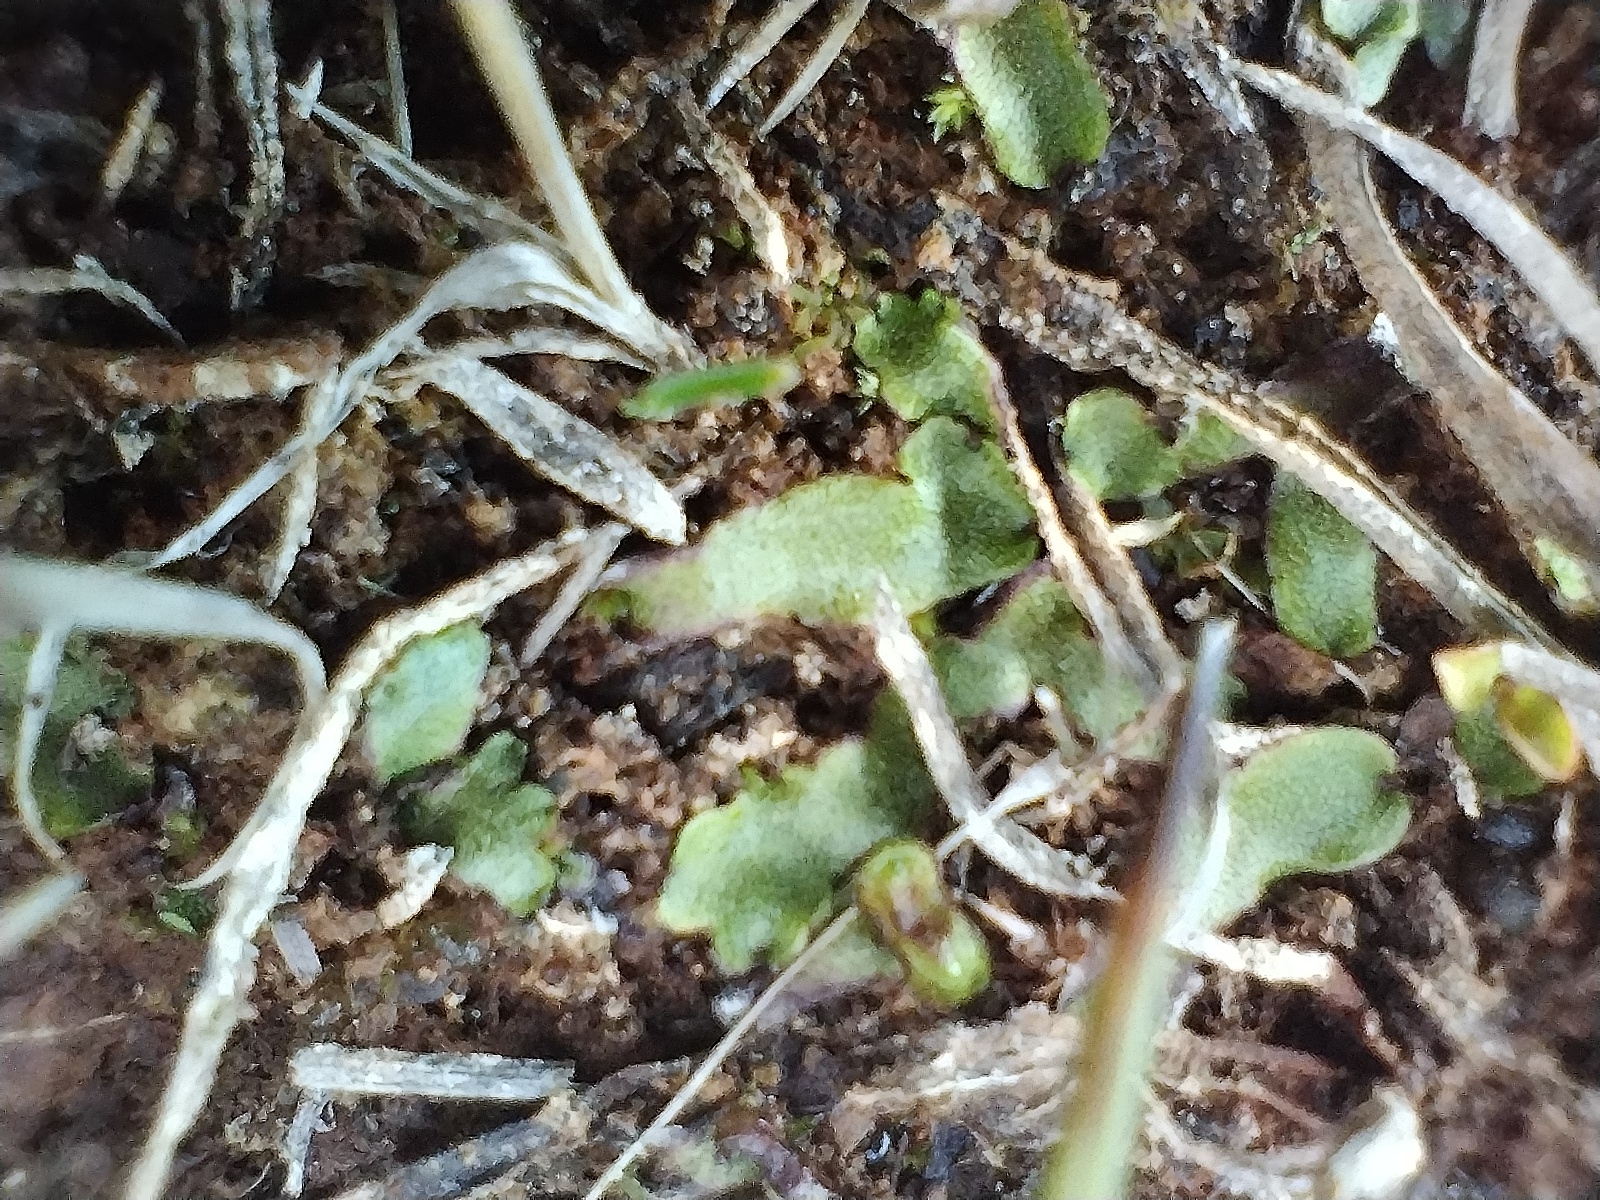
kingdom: Plantae
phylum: Marchantiophyta
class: Marchantiopsida
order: Marchantiales
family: Marchantiaceae
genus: Marchantia
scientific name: Marchantia quadrata
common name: Narrow mushroom-headed liverwort
